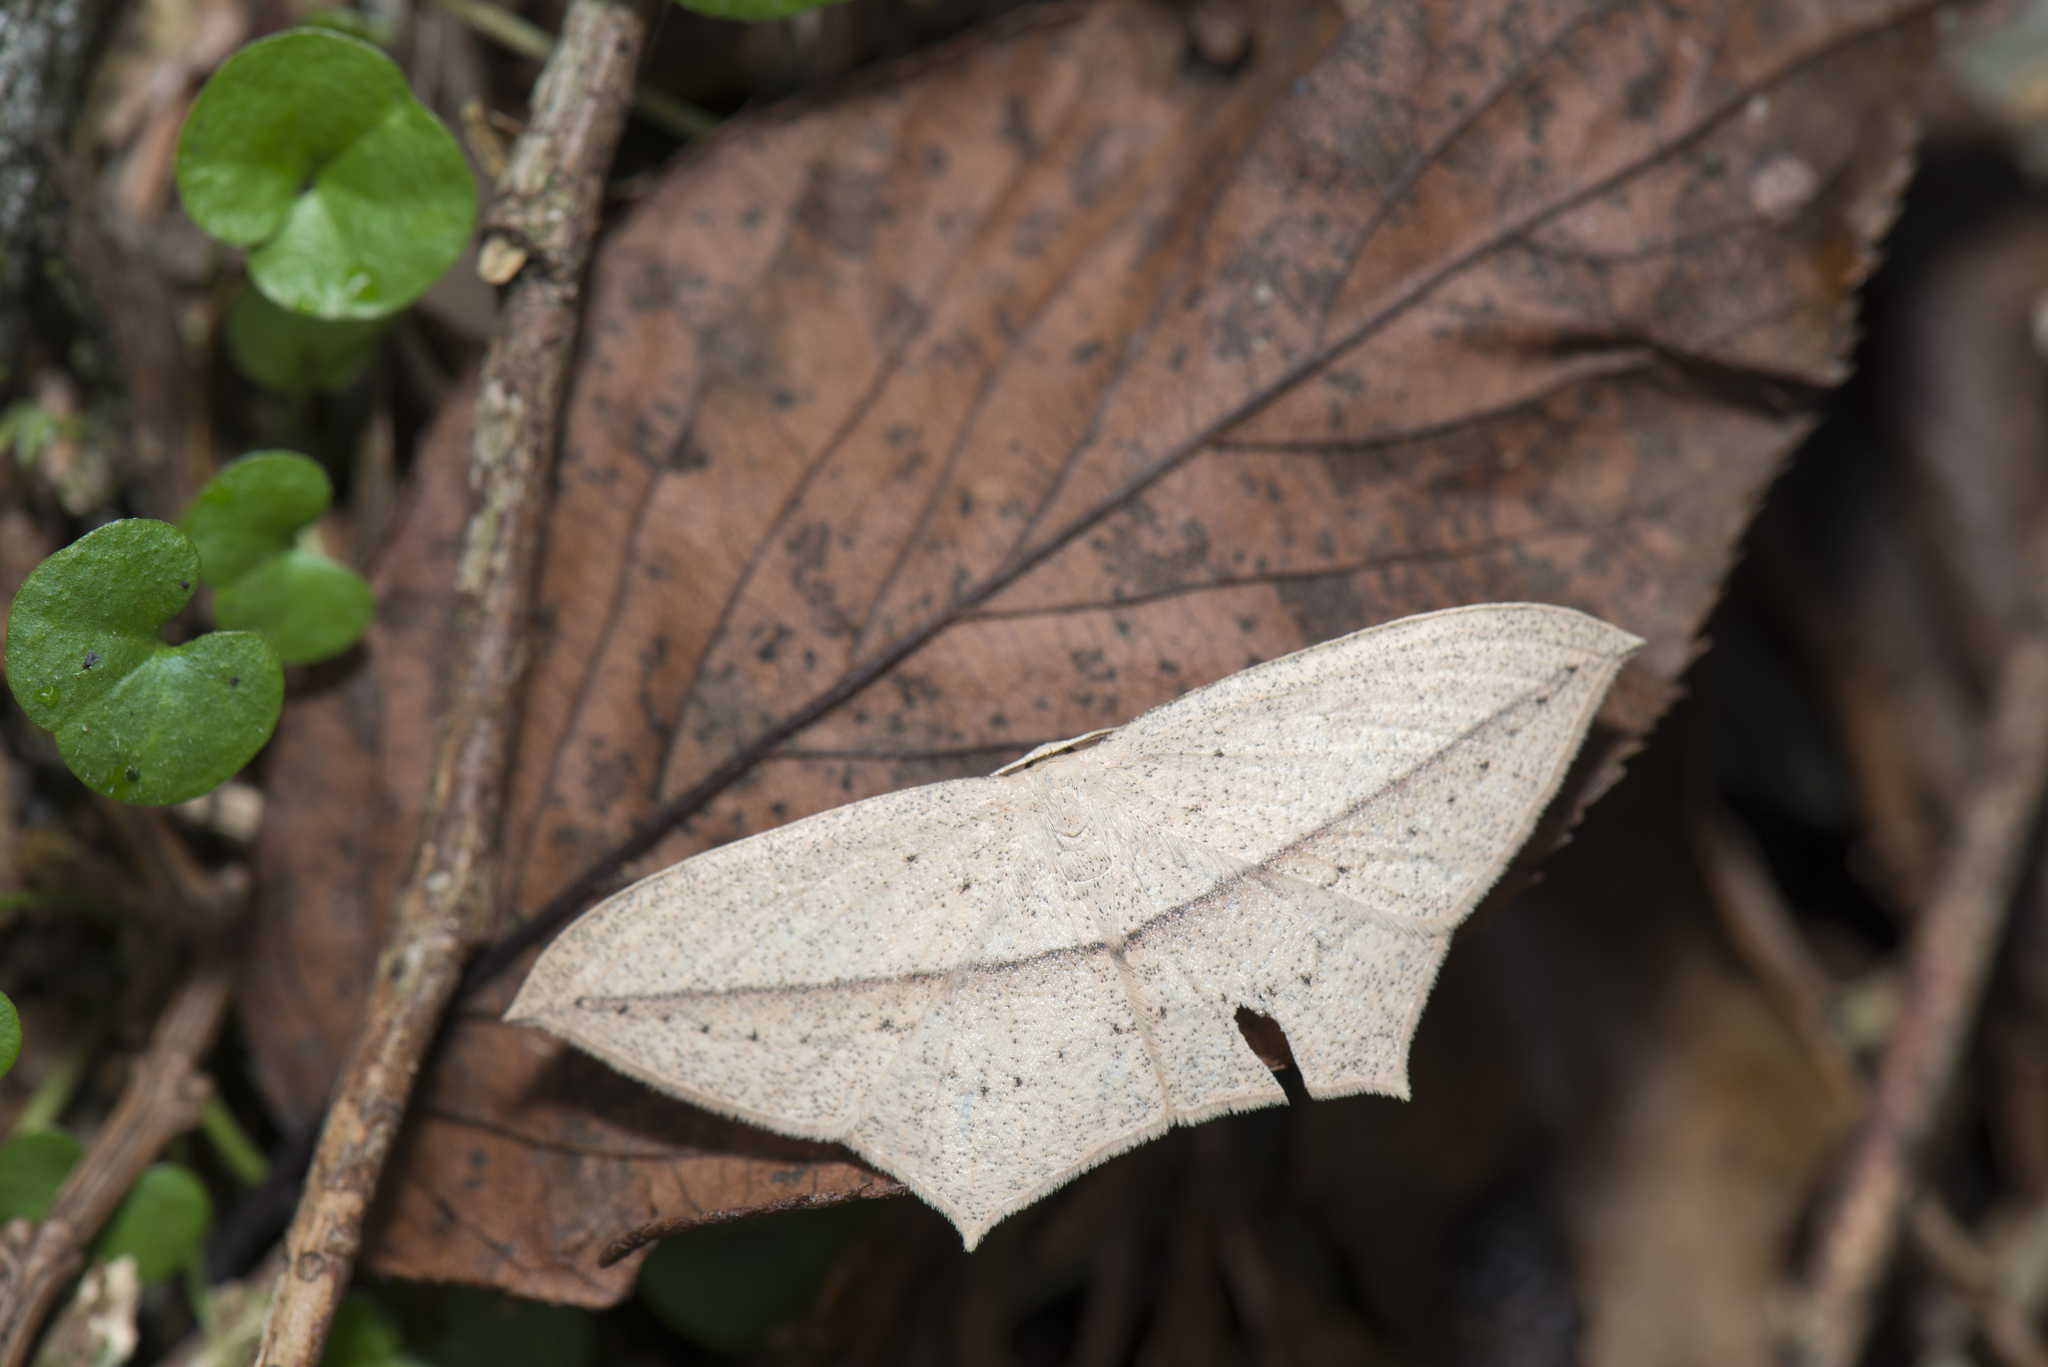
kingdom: Animalia
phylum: Arthropoda
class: Insecta
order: Lepidoptera
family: Geometridae
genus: Timandra
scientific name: Timandra extremaria
